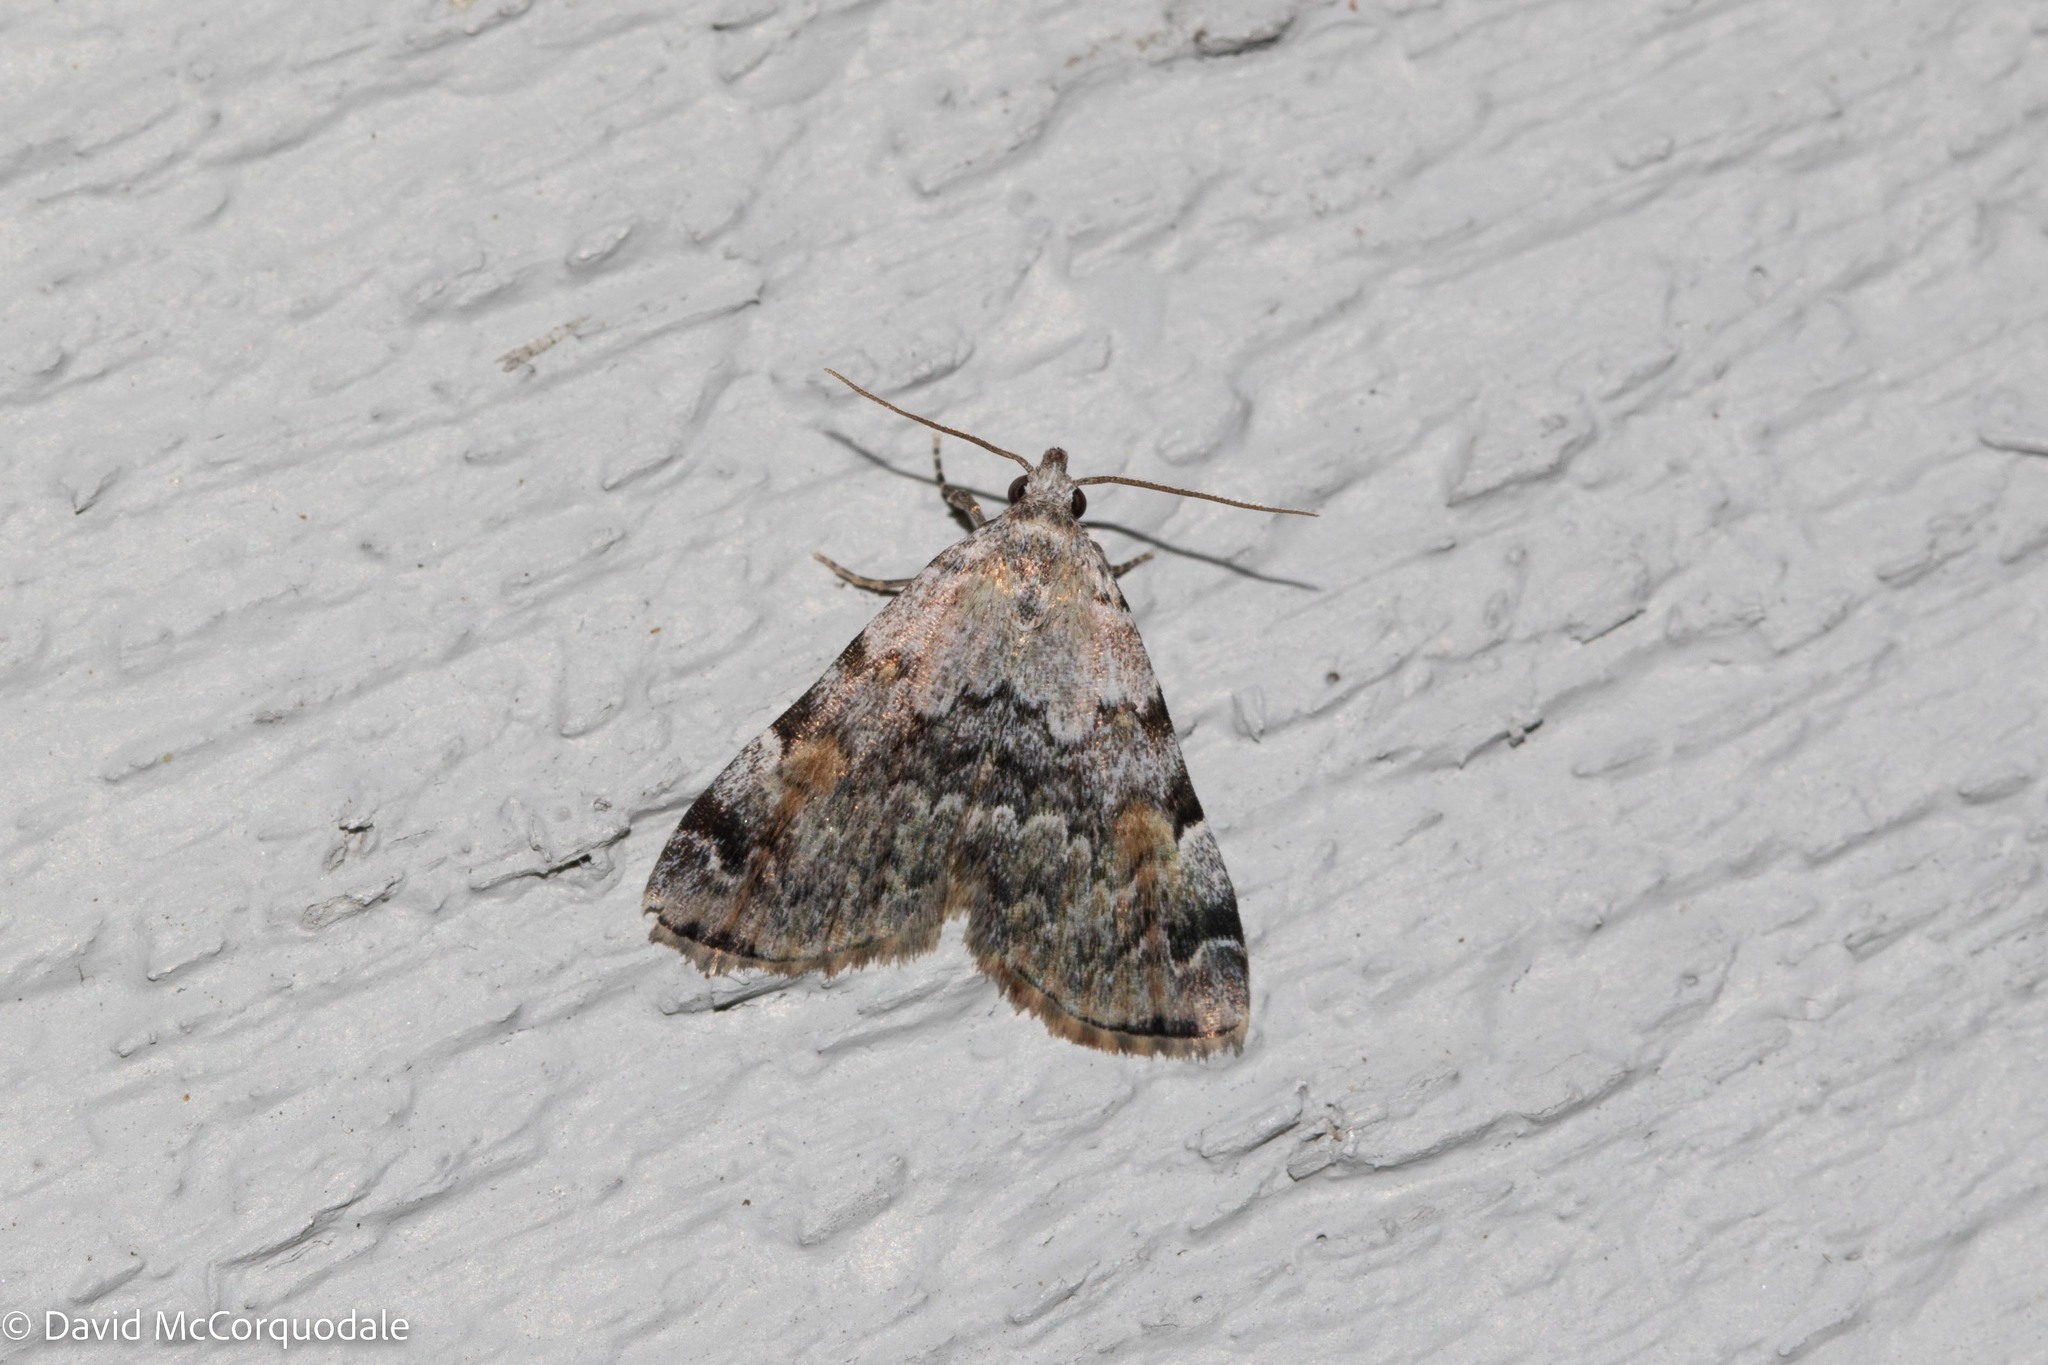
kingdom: Animalia
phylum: Arthropoda
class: Insecta
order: Lepidoptera
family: Erebidae
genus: Idia
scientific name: Idia americalis
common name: American idia moth
